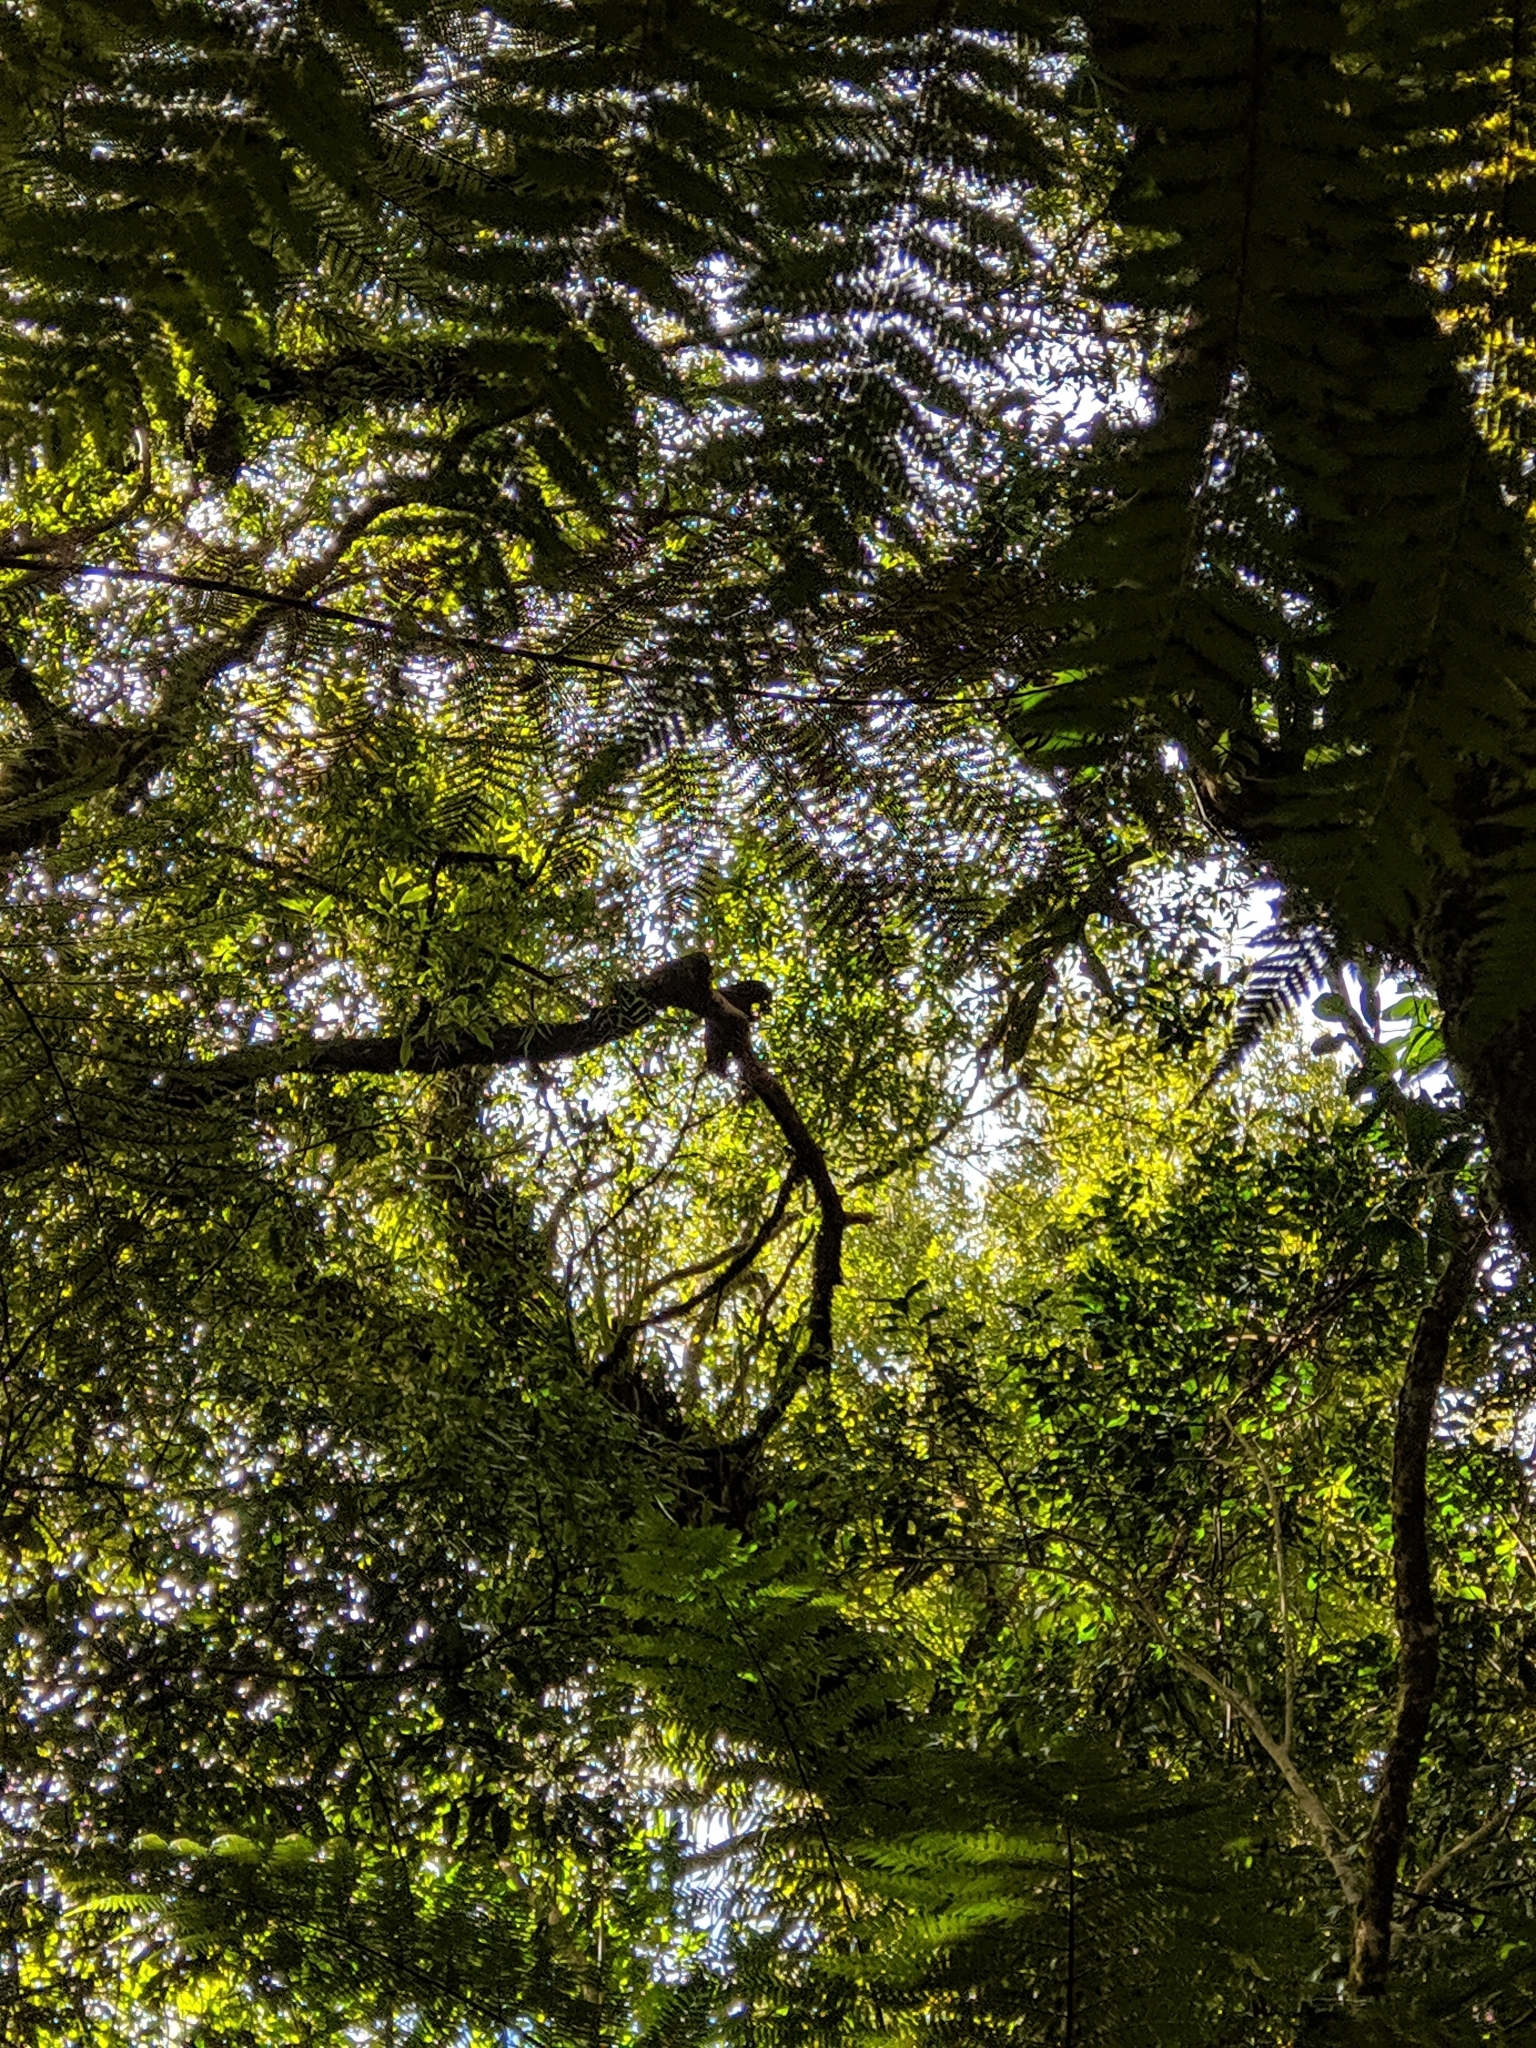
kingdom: Animalia
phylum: Chordata
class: Aves
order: Psittaciformes
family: Psittacidae
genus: Nestor
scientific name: Nestor meridionalis
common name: New zealand kaka
